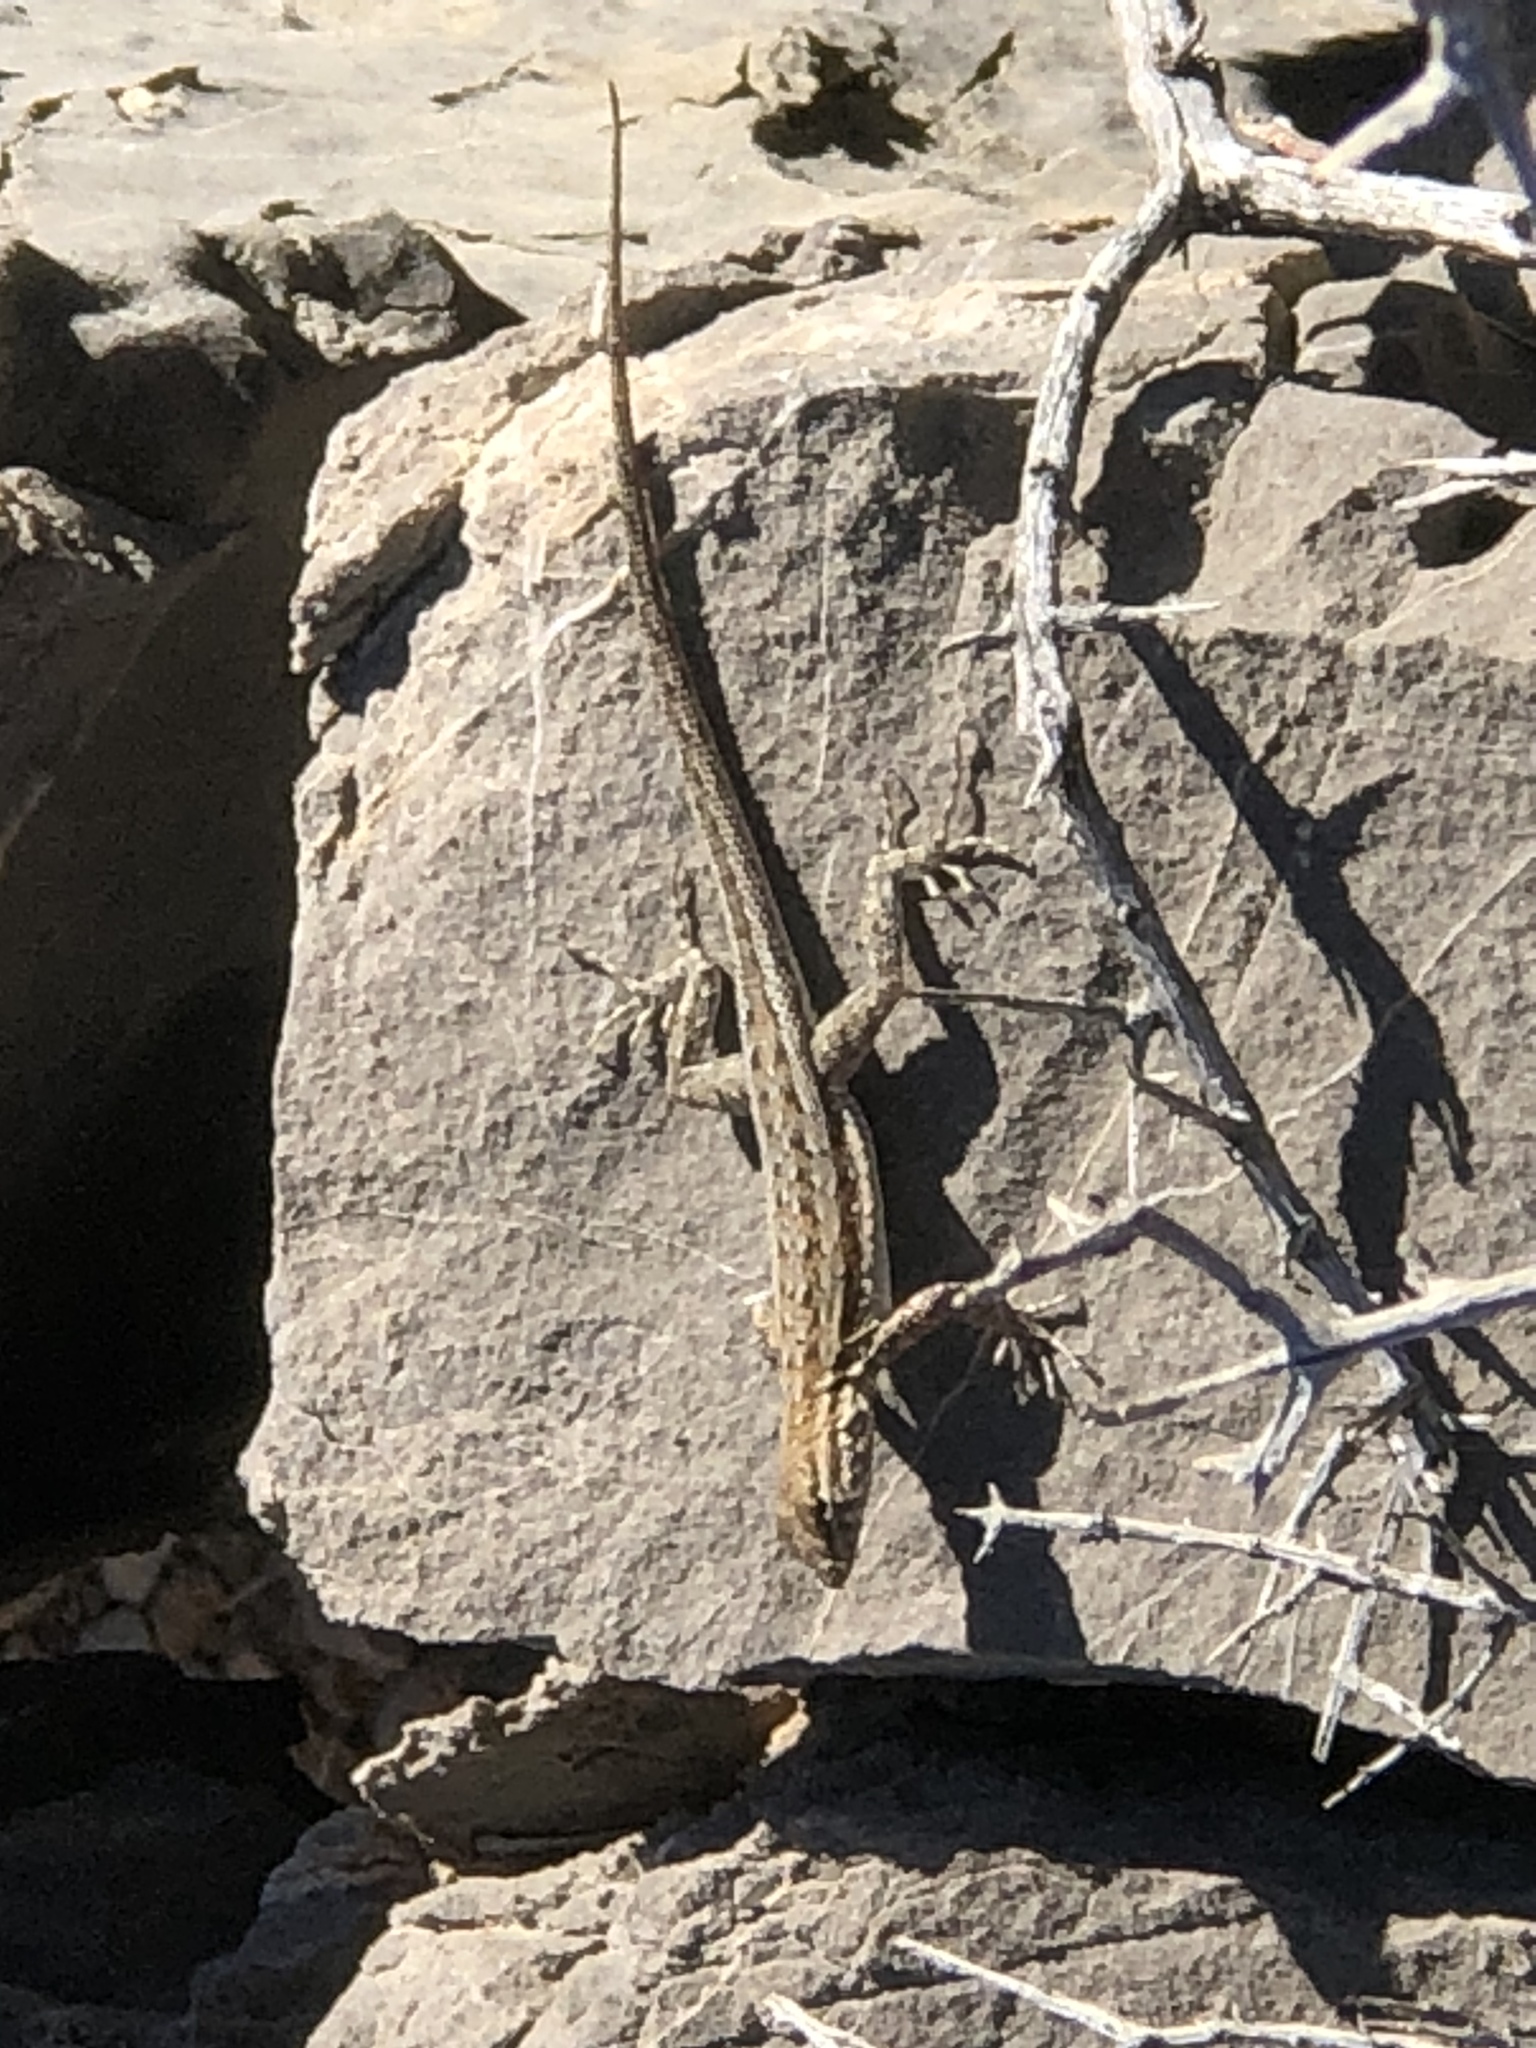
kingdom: Animalia
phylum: Chordata
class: Squamata
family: Phrynosomatidae
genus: Uta
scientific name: Uta stansburiana
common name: Side-blotched lizard
